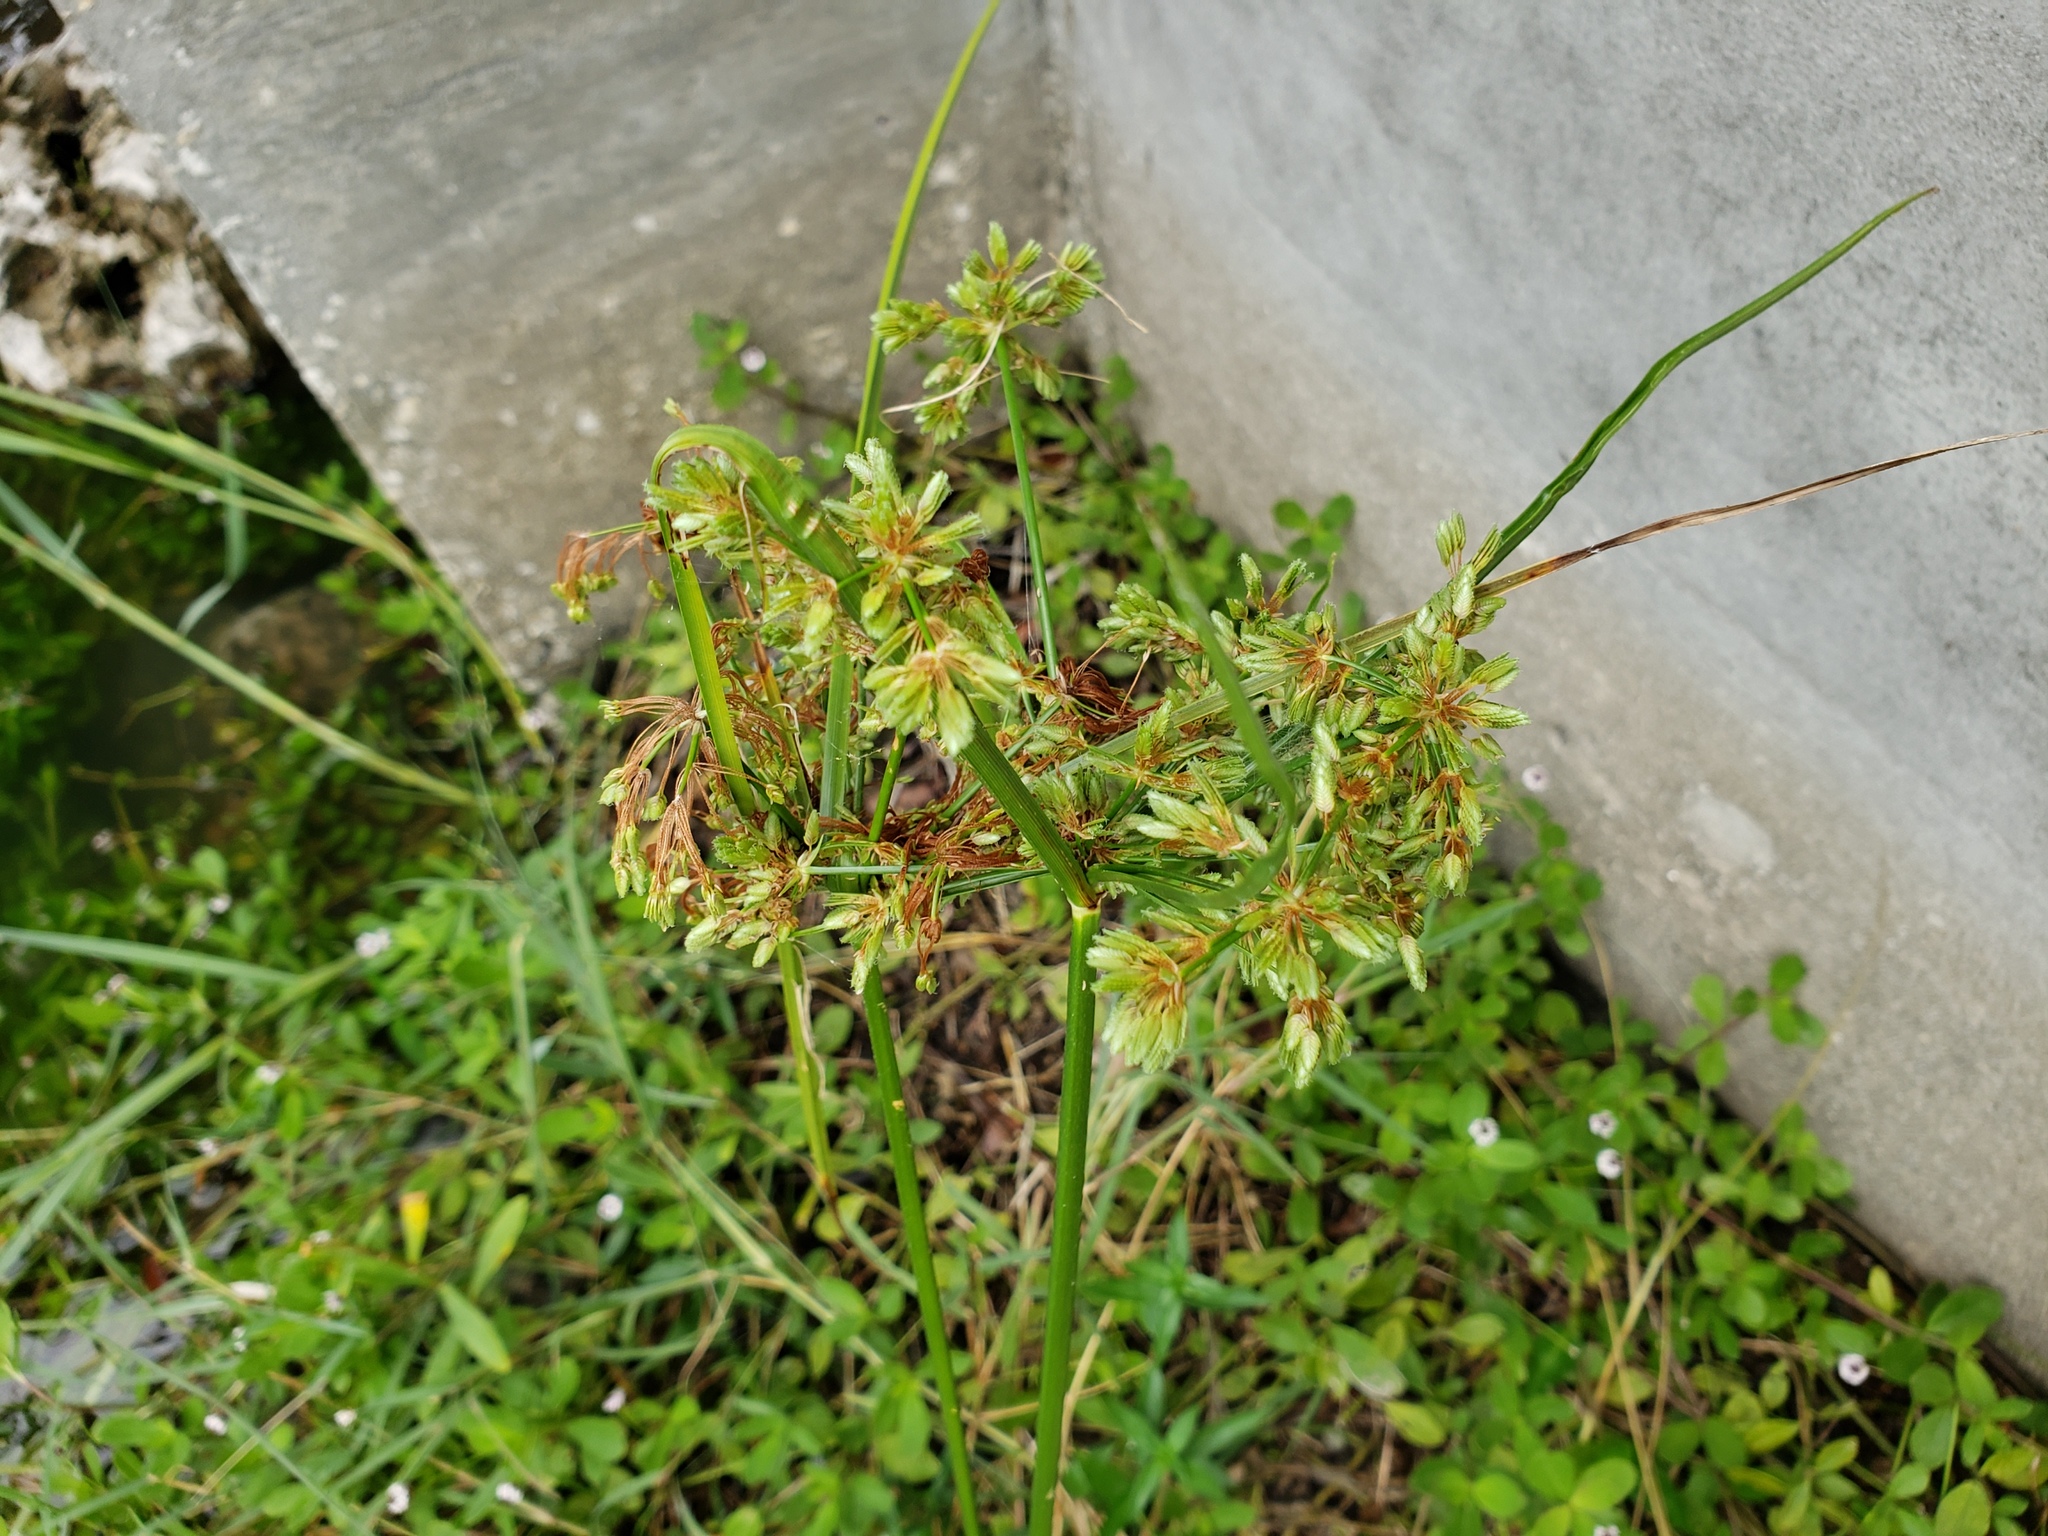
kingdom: Plantae
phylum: Tracheophyta
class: Liliopsida
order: Poales
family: Cyperaceae
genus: Cyperus
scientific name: Cyperus surinamensis
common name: Tropical flat sedge
